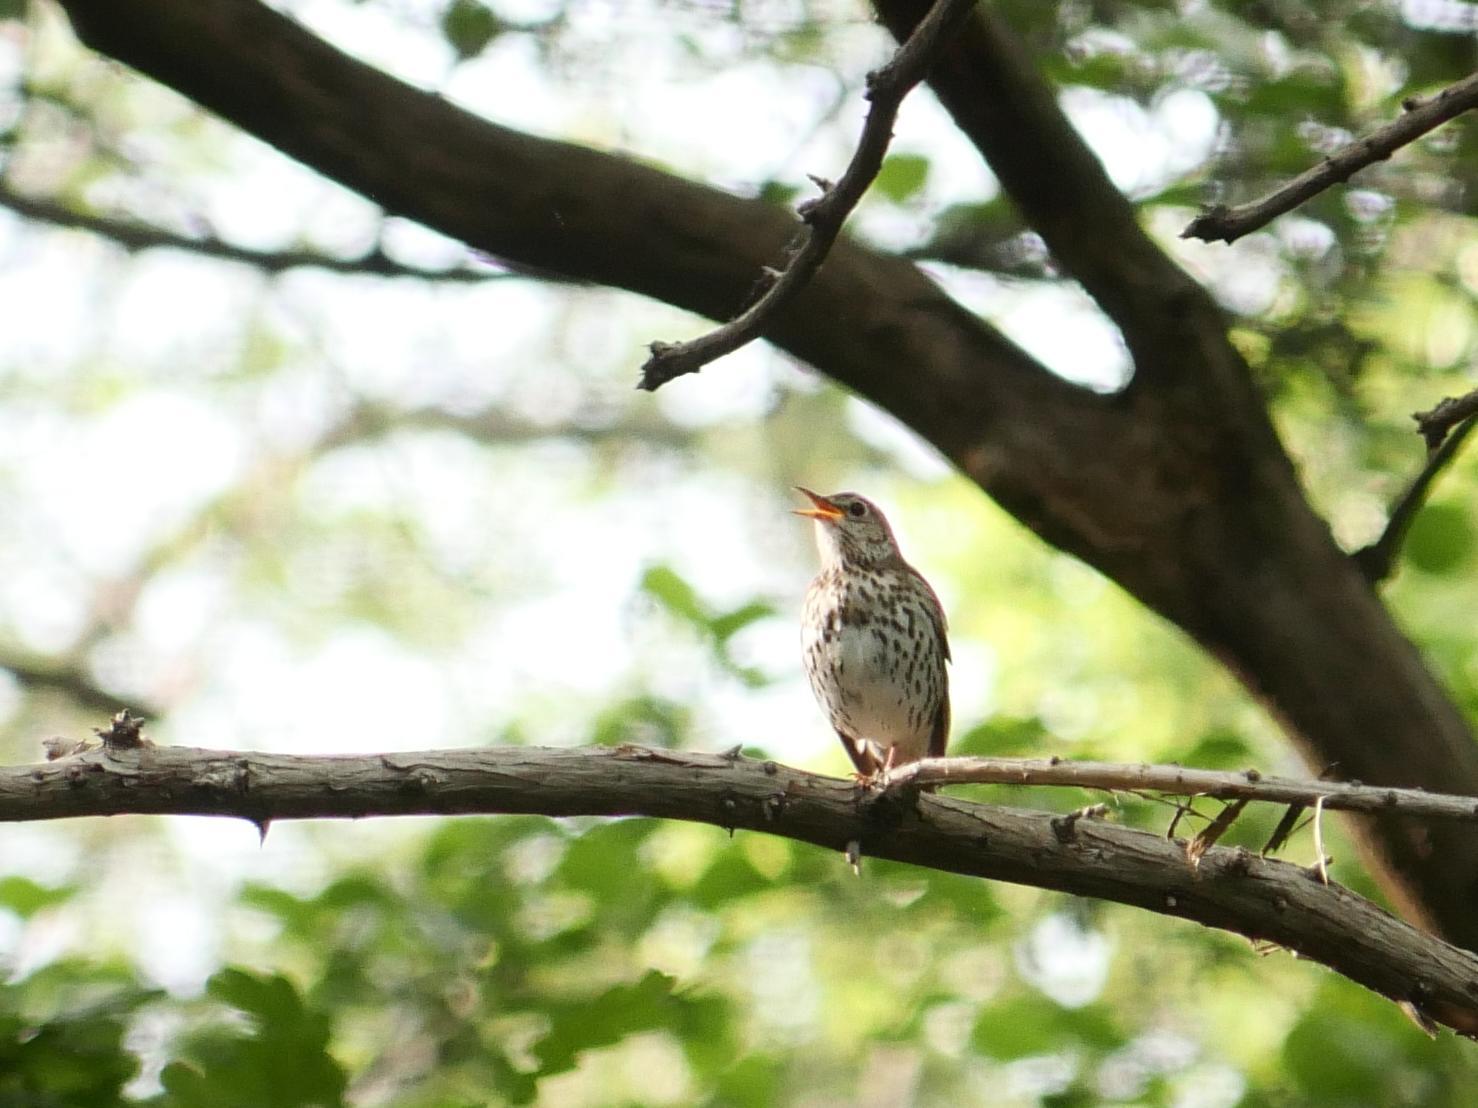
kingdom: Animalia
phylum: Chordata
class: Aves
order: Passeriformes
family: Turdidae
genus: Turdus
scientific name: Turdus philomelos
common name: Song thrush
